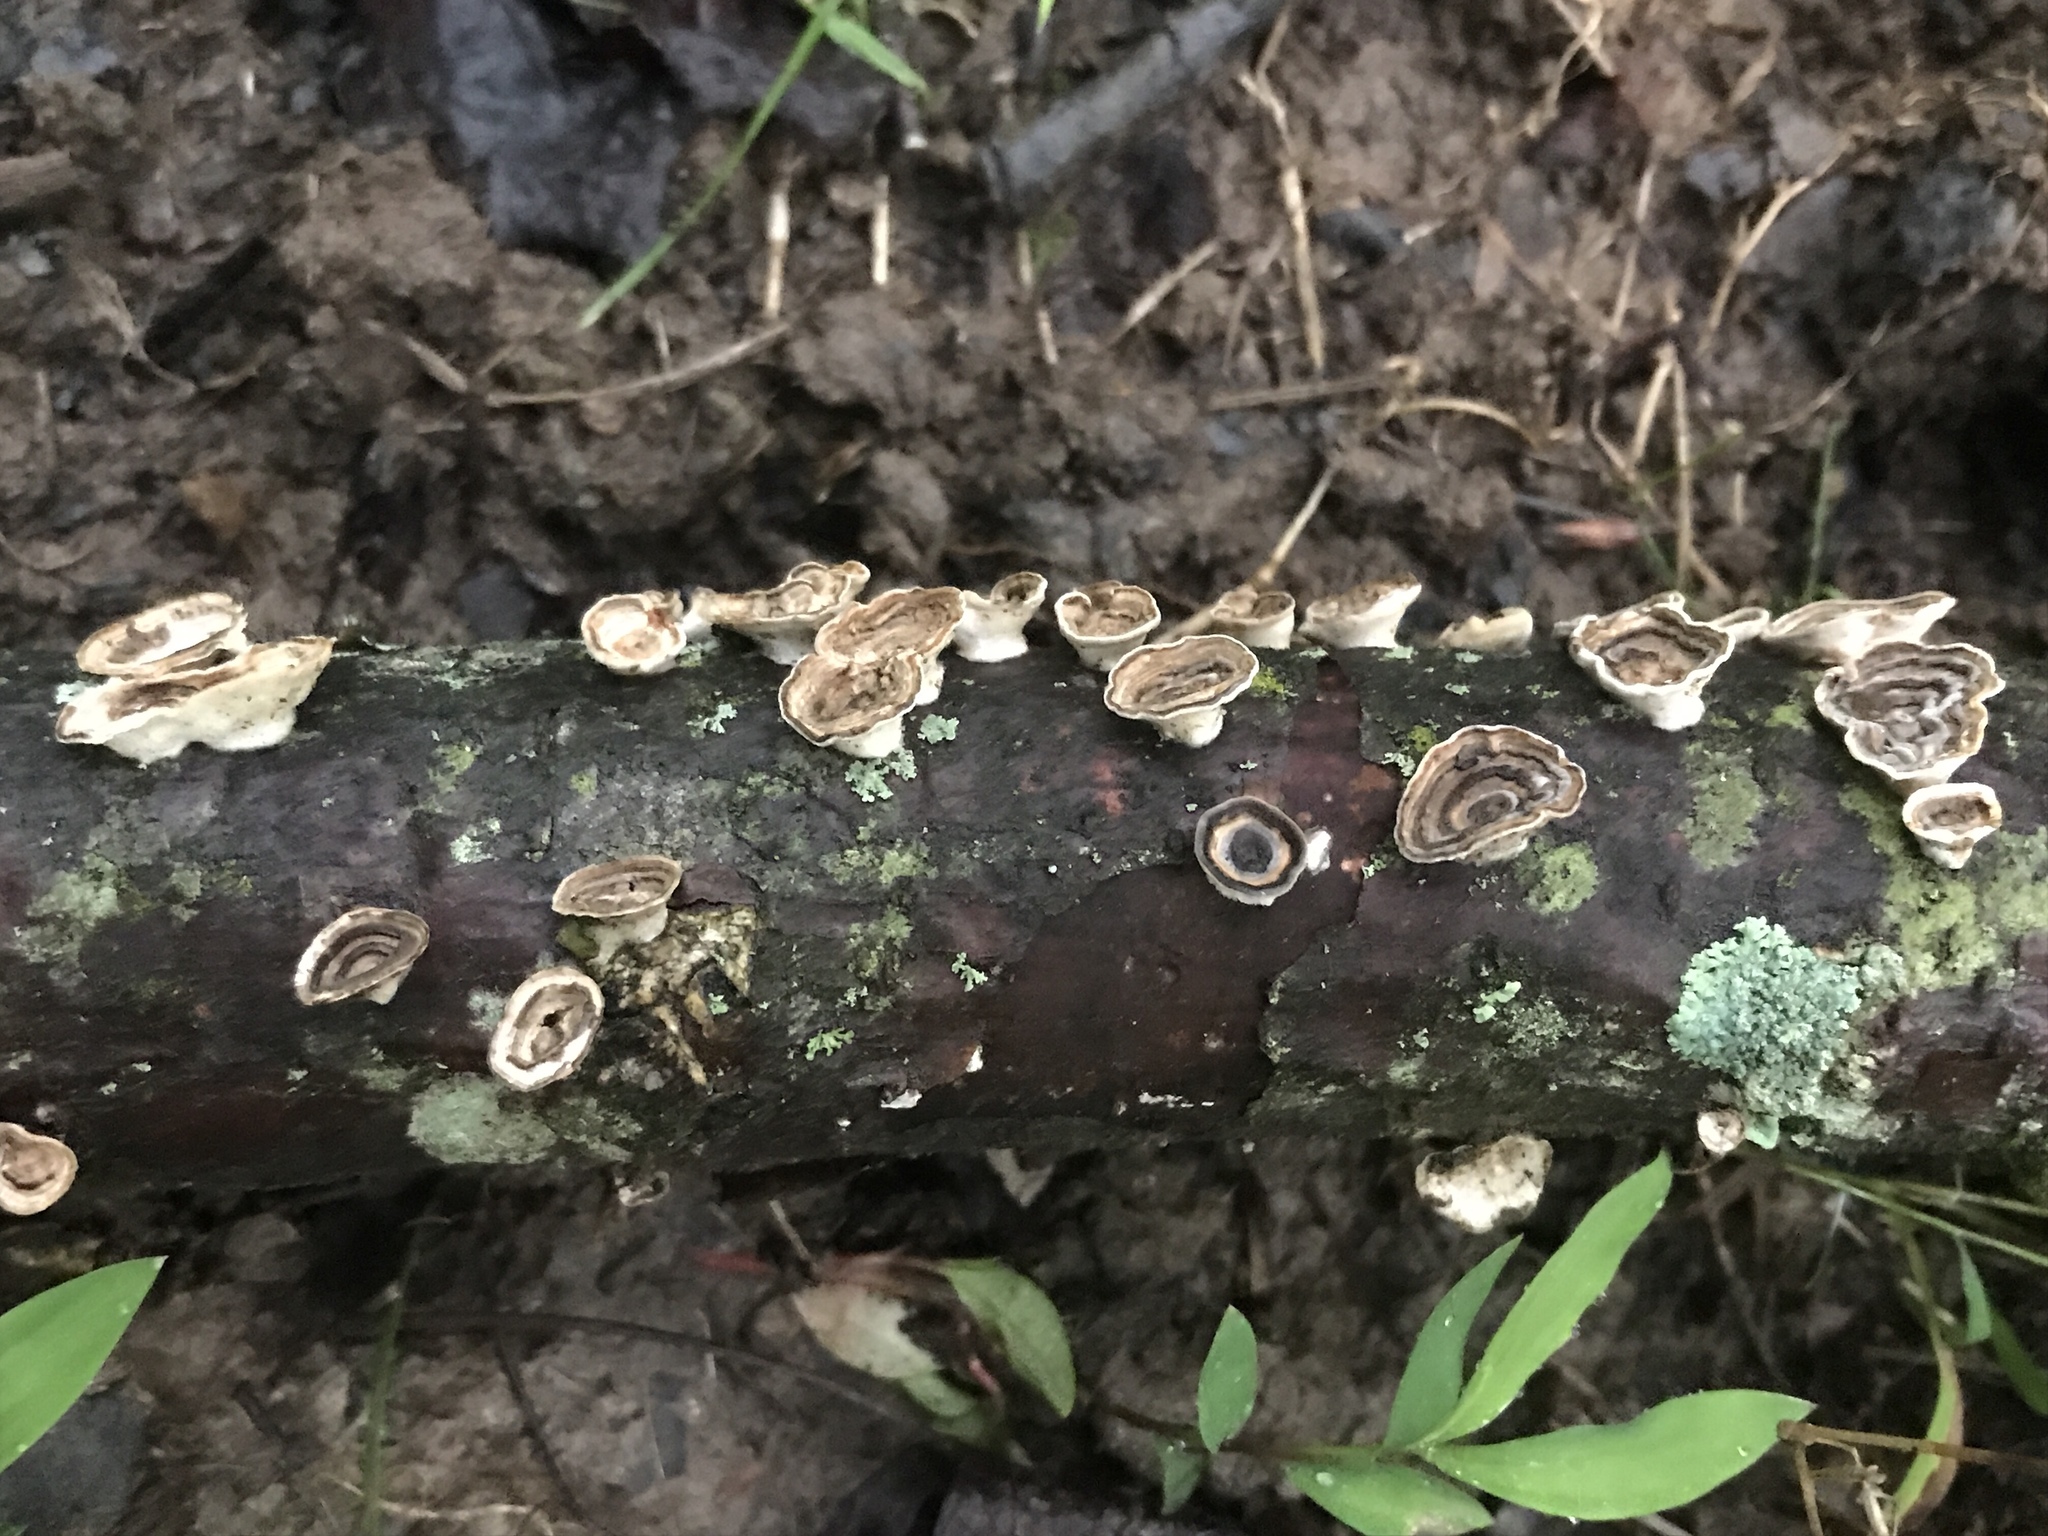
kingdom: Fungi
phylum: Basidiomycota
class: Agaricomycetes
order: Polyporales
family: Polyporaceae
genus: Poronidulus
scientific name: Poronidulus conchifer
